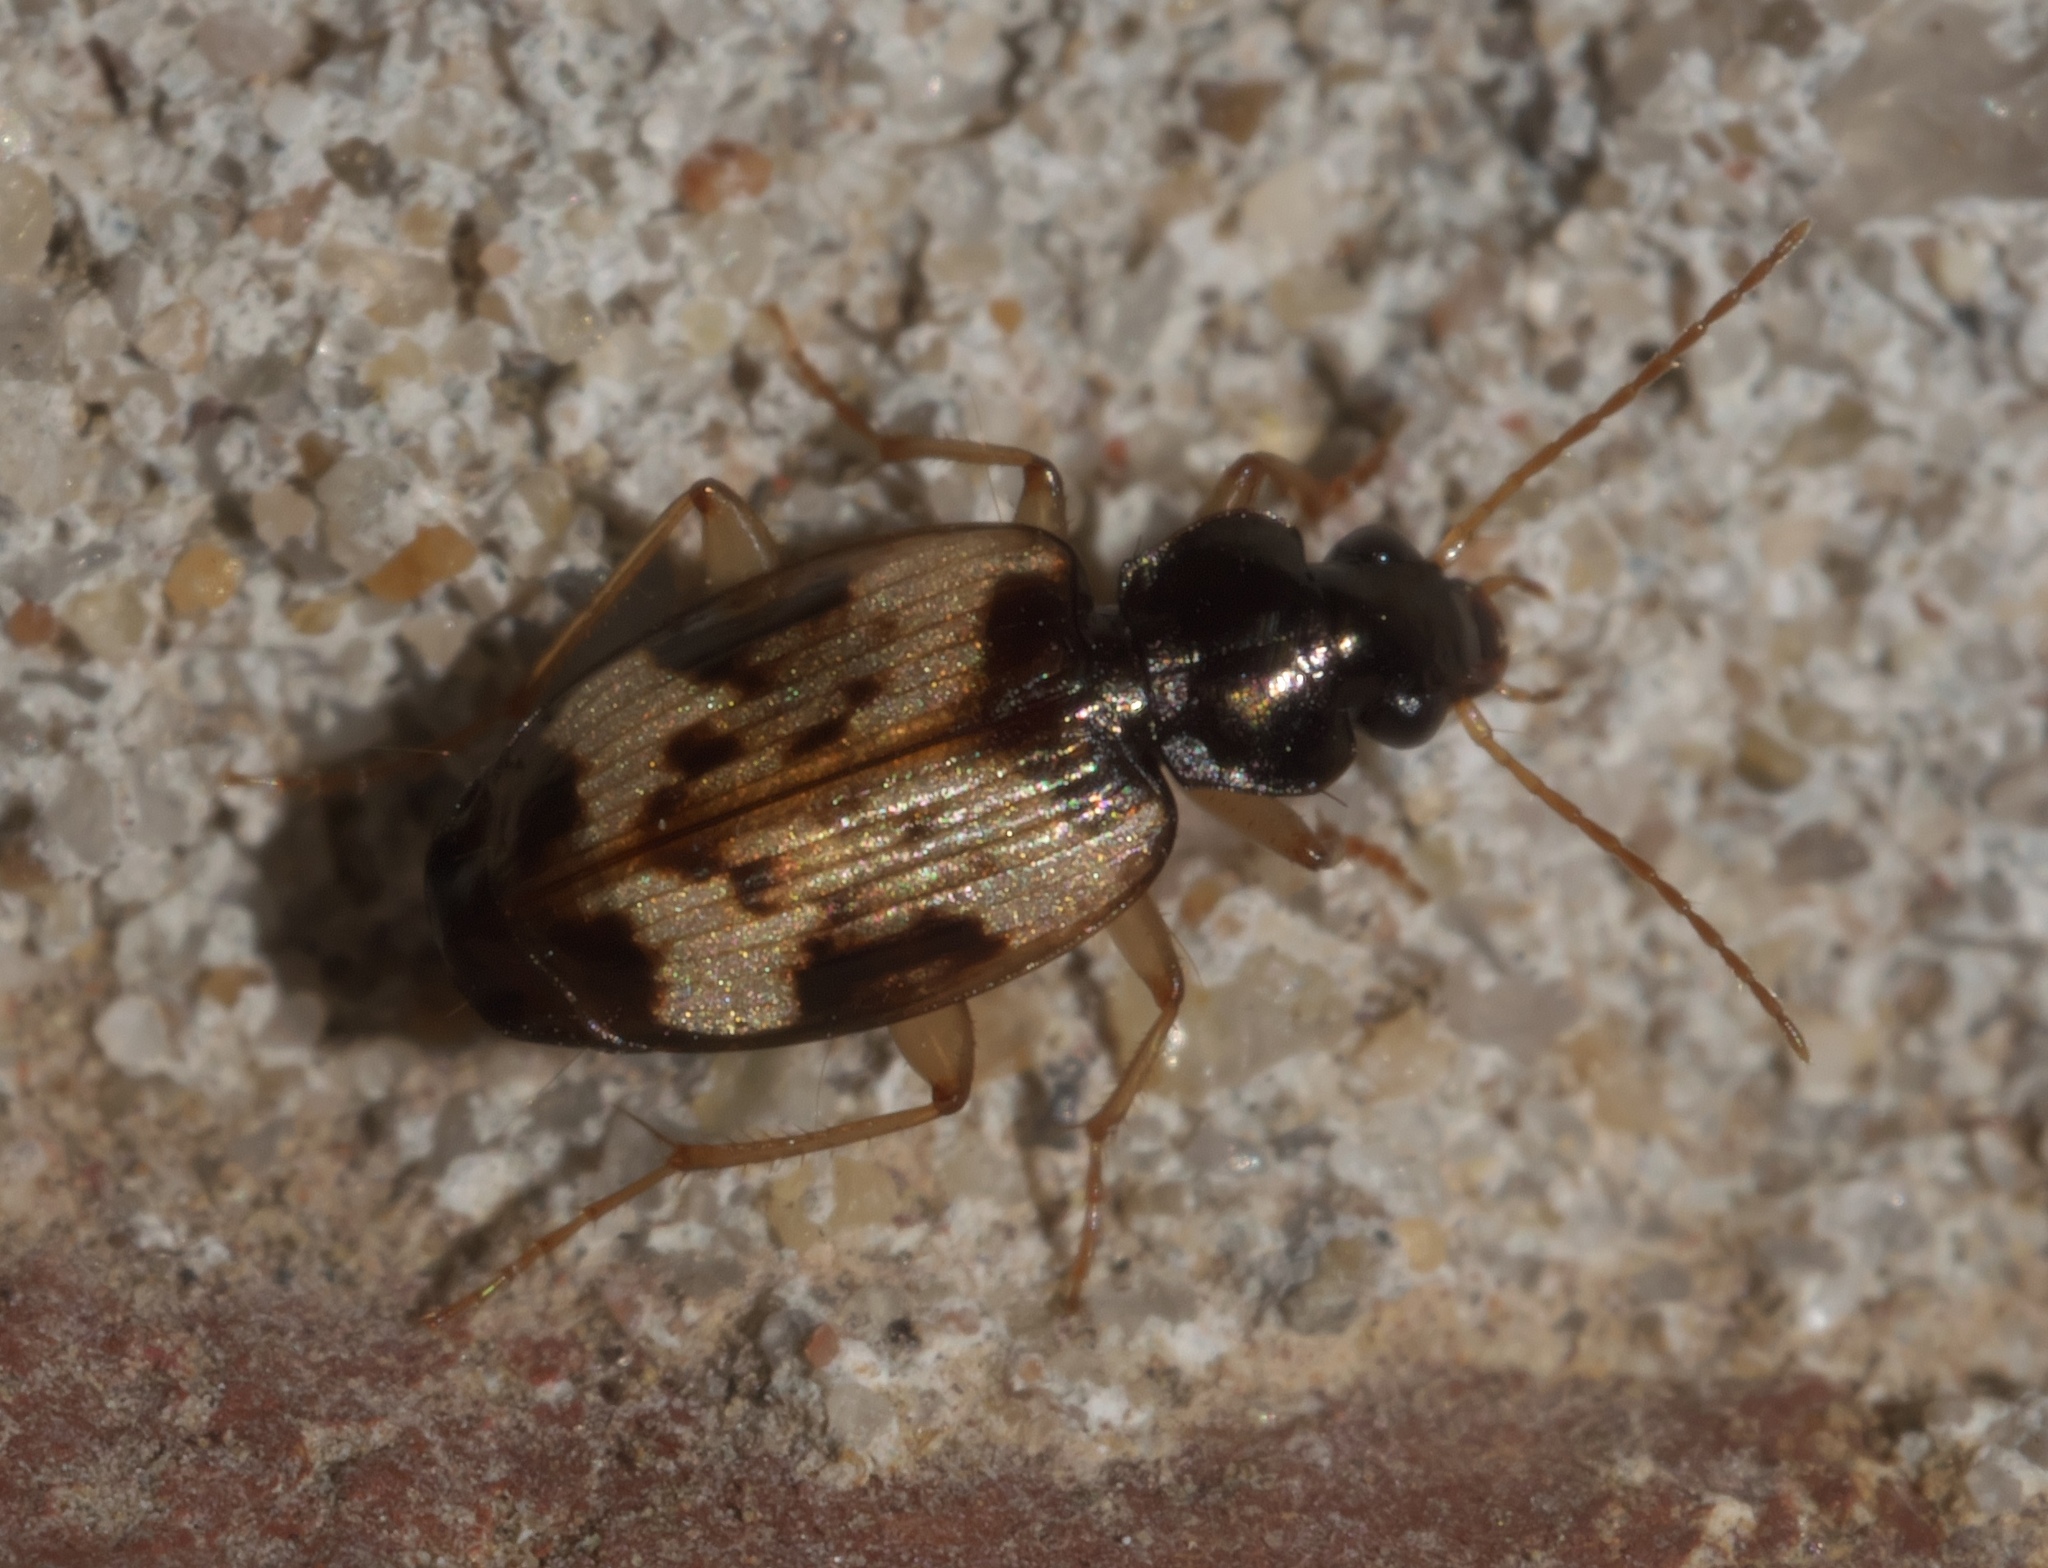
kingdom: Animalia
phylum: Arthropoda
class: Insecta
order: Coleoptera
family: Carabidae
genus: Tetragonoderus
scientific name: Tetragonoderus fasciatus
